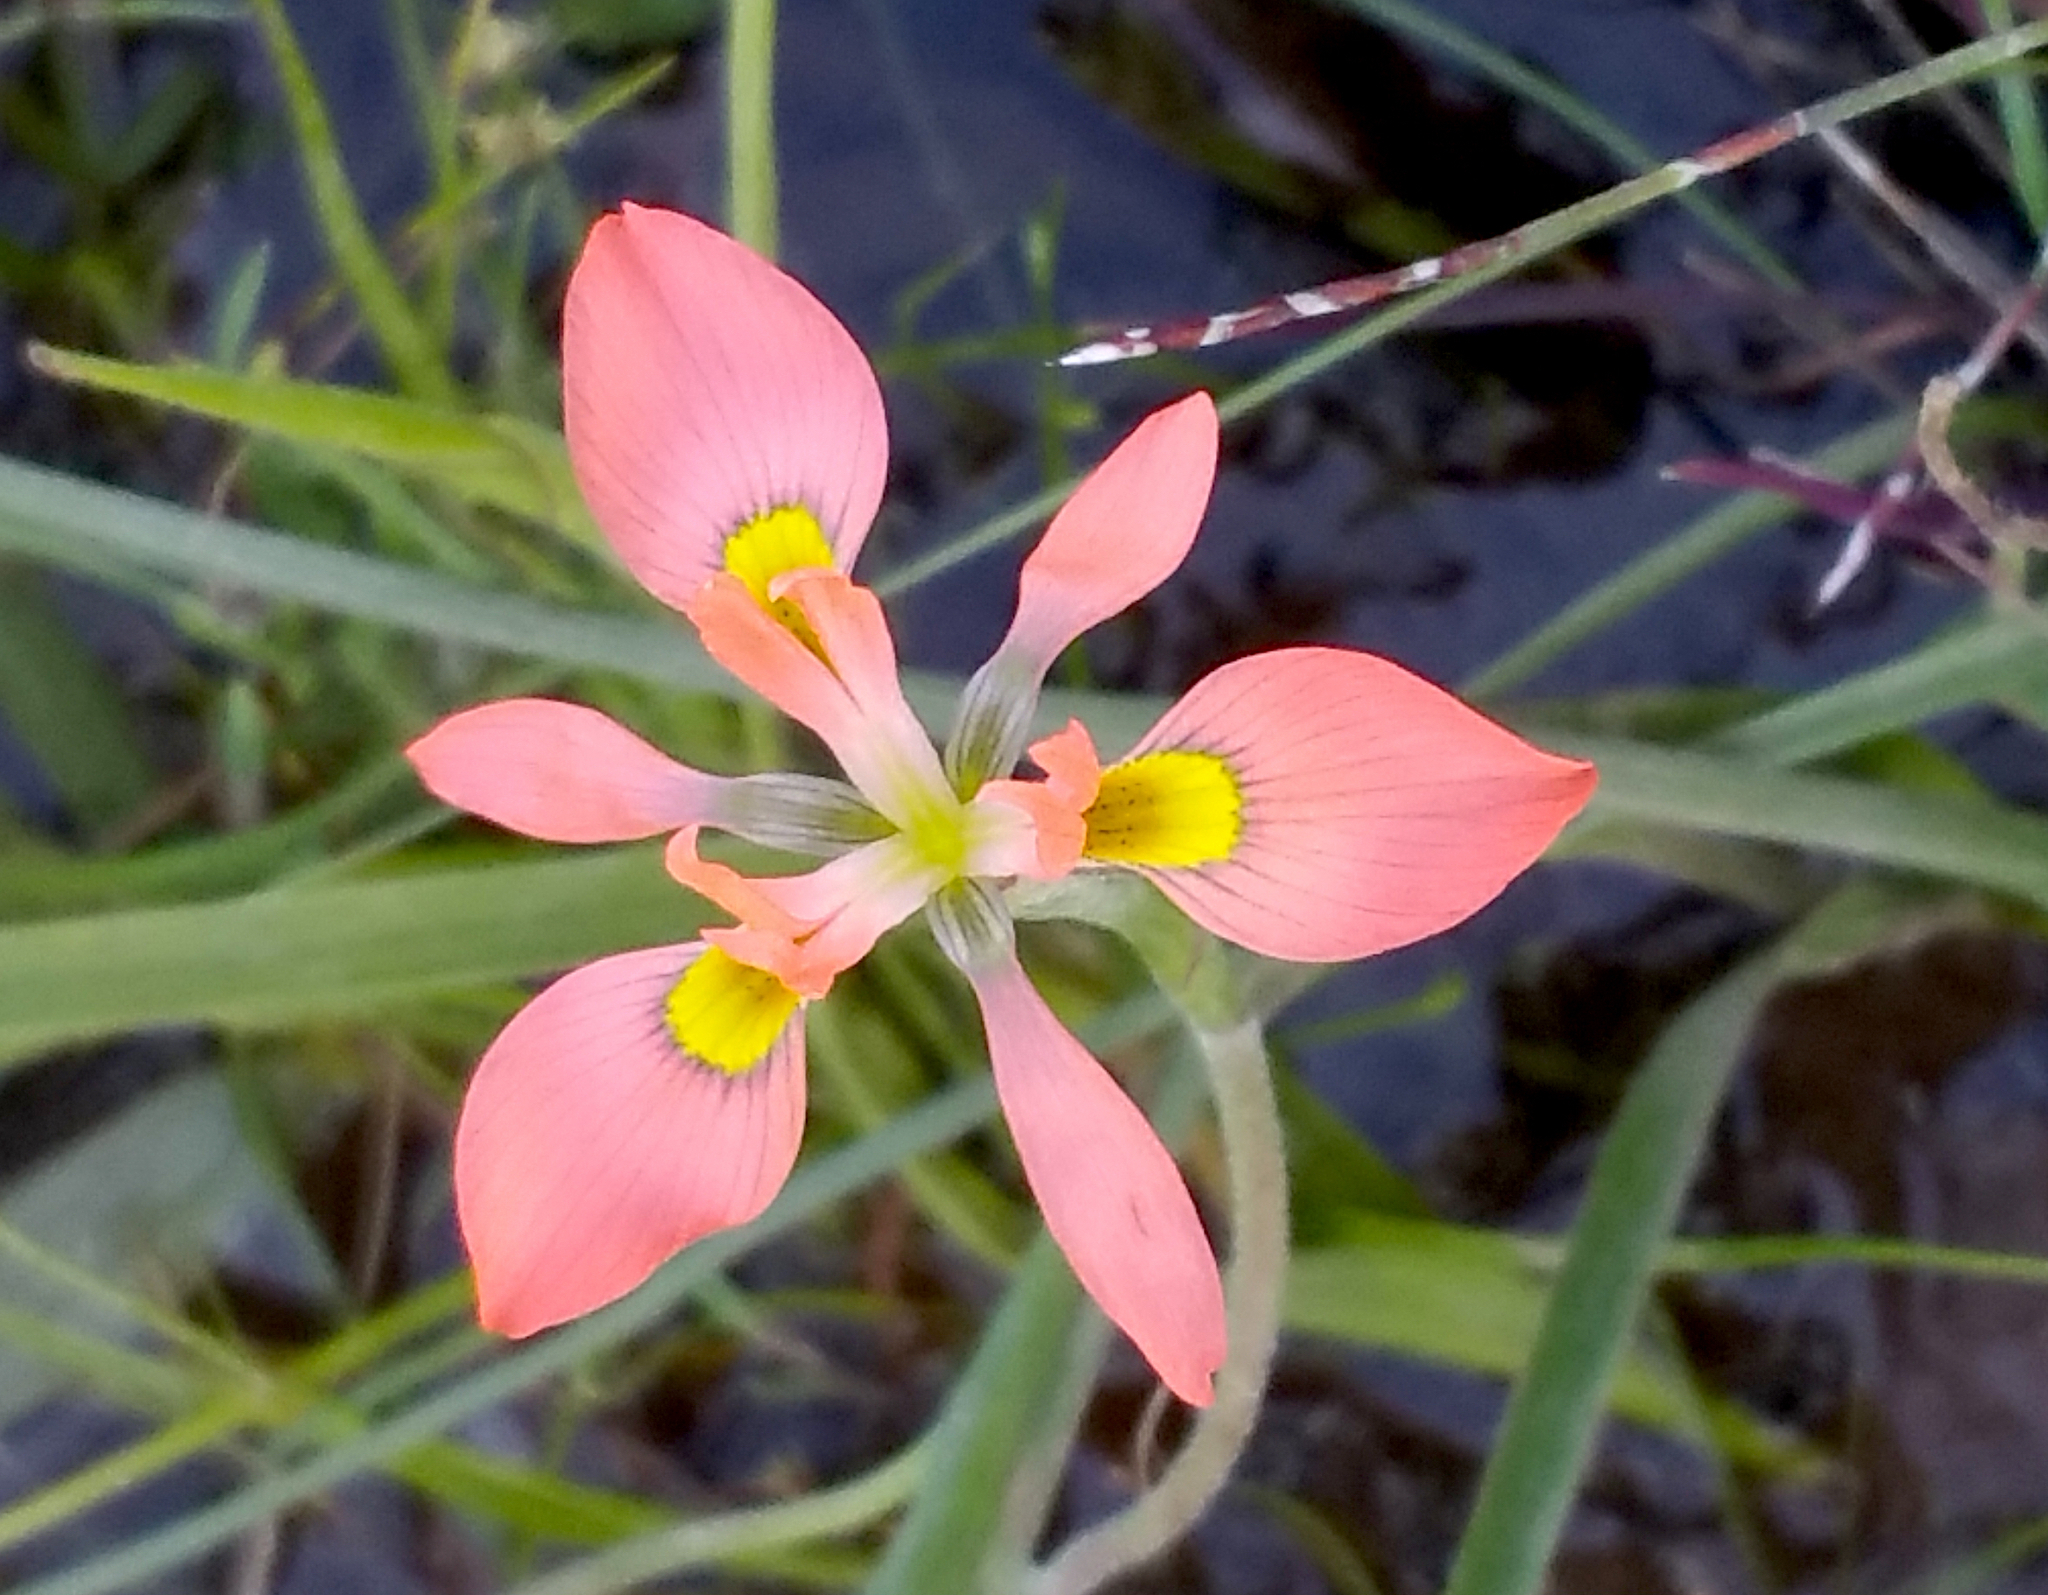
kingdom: Plantae
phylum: Tracheophyta
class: Liliopsida
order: Asparagales
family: Iridaceae
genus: Moraea
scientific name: Moraea papilionacea
